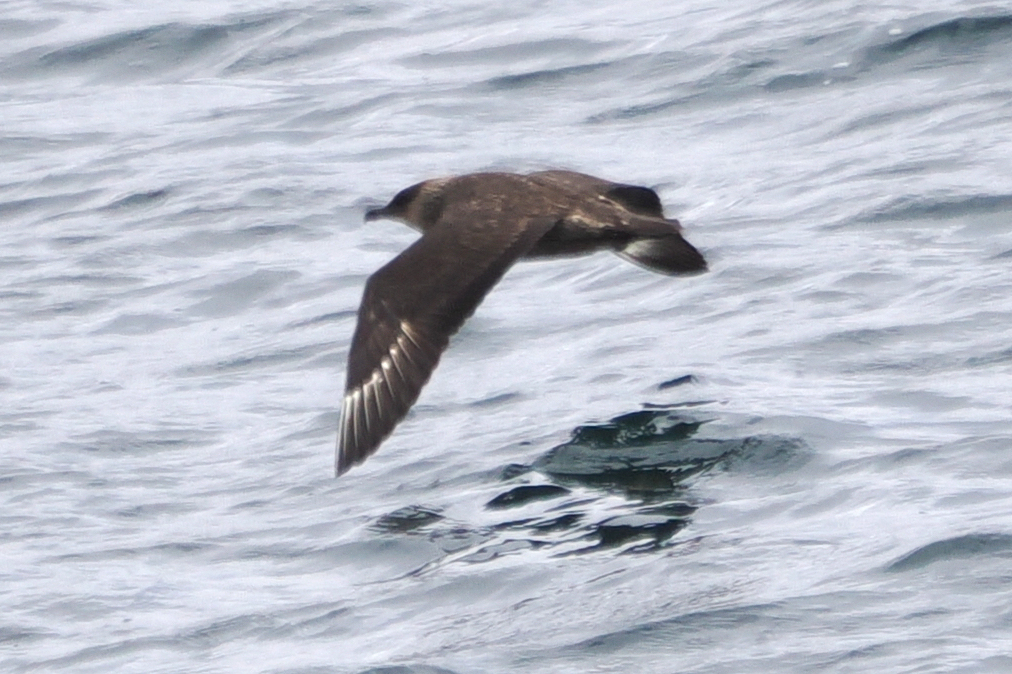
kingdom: Animalia
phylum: Chordata
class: Aves
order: Charadriiformes
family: Stercorariidae
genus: Stercorarius
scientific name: Stercorarius chilensis
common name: Chilean skua
